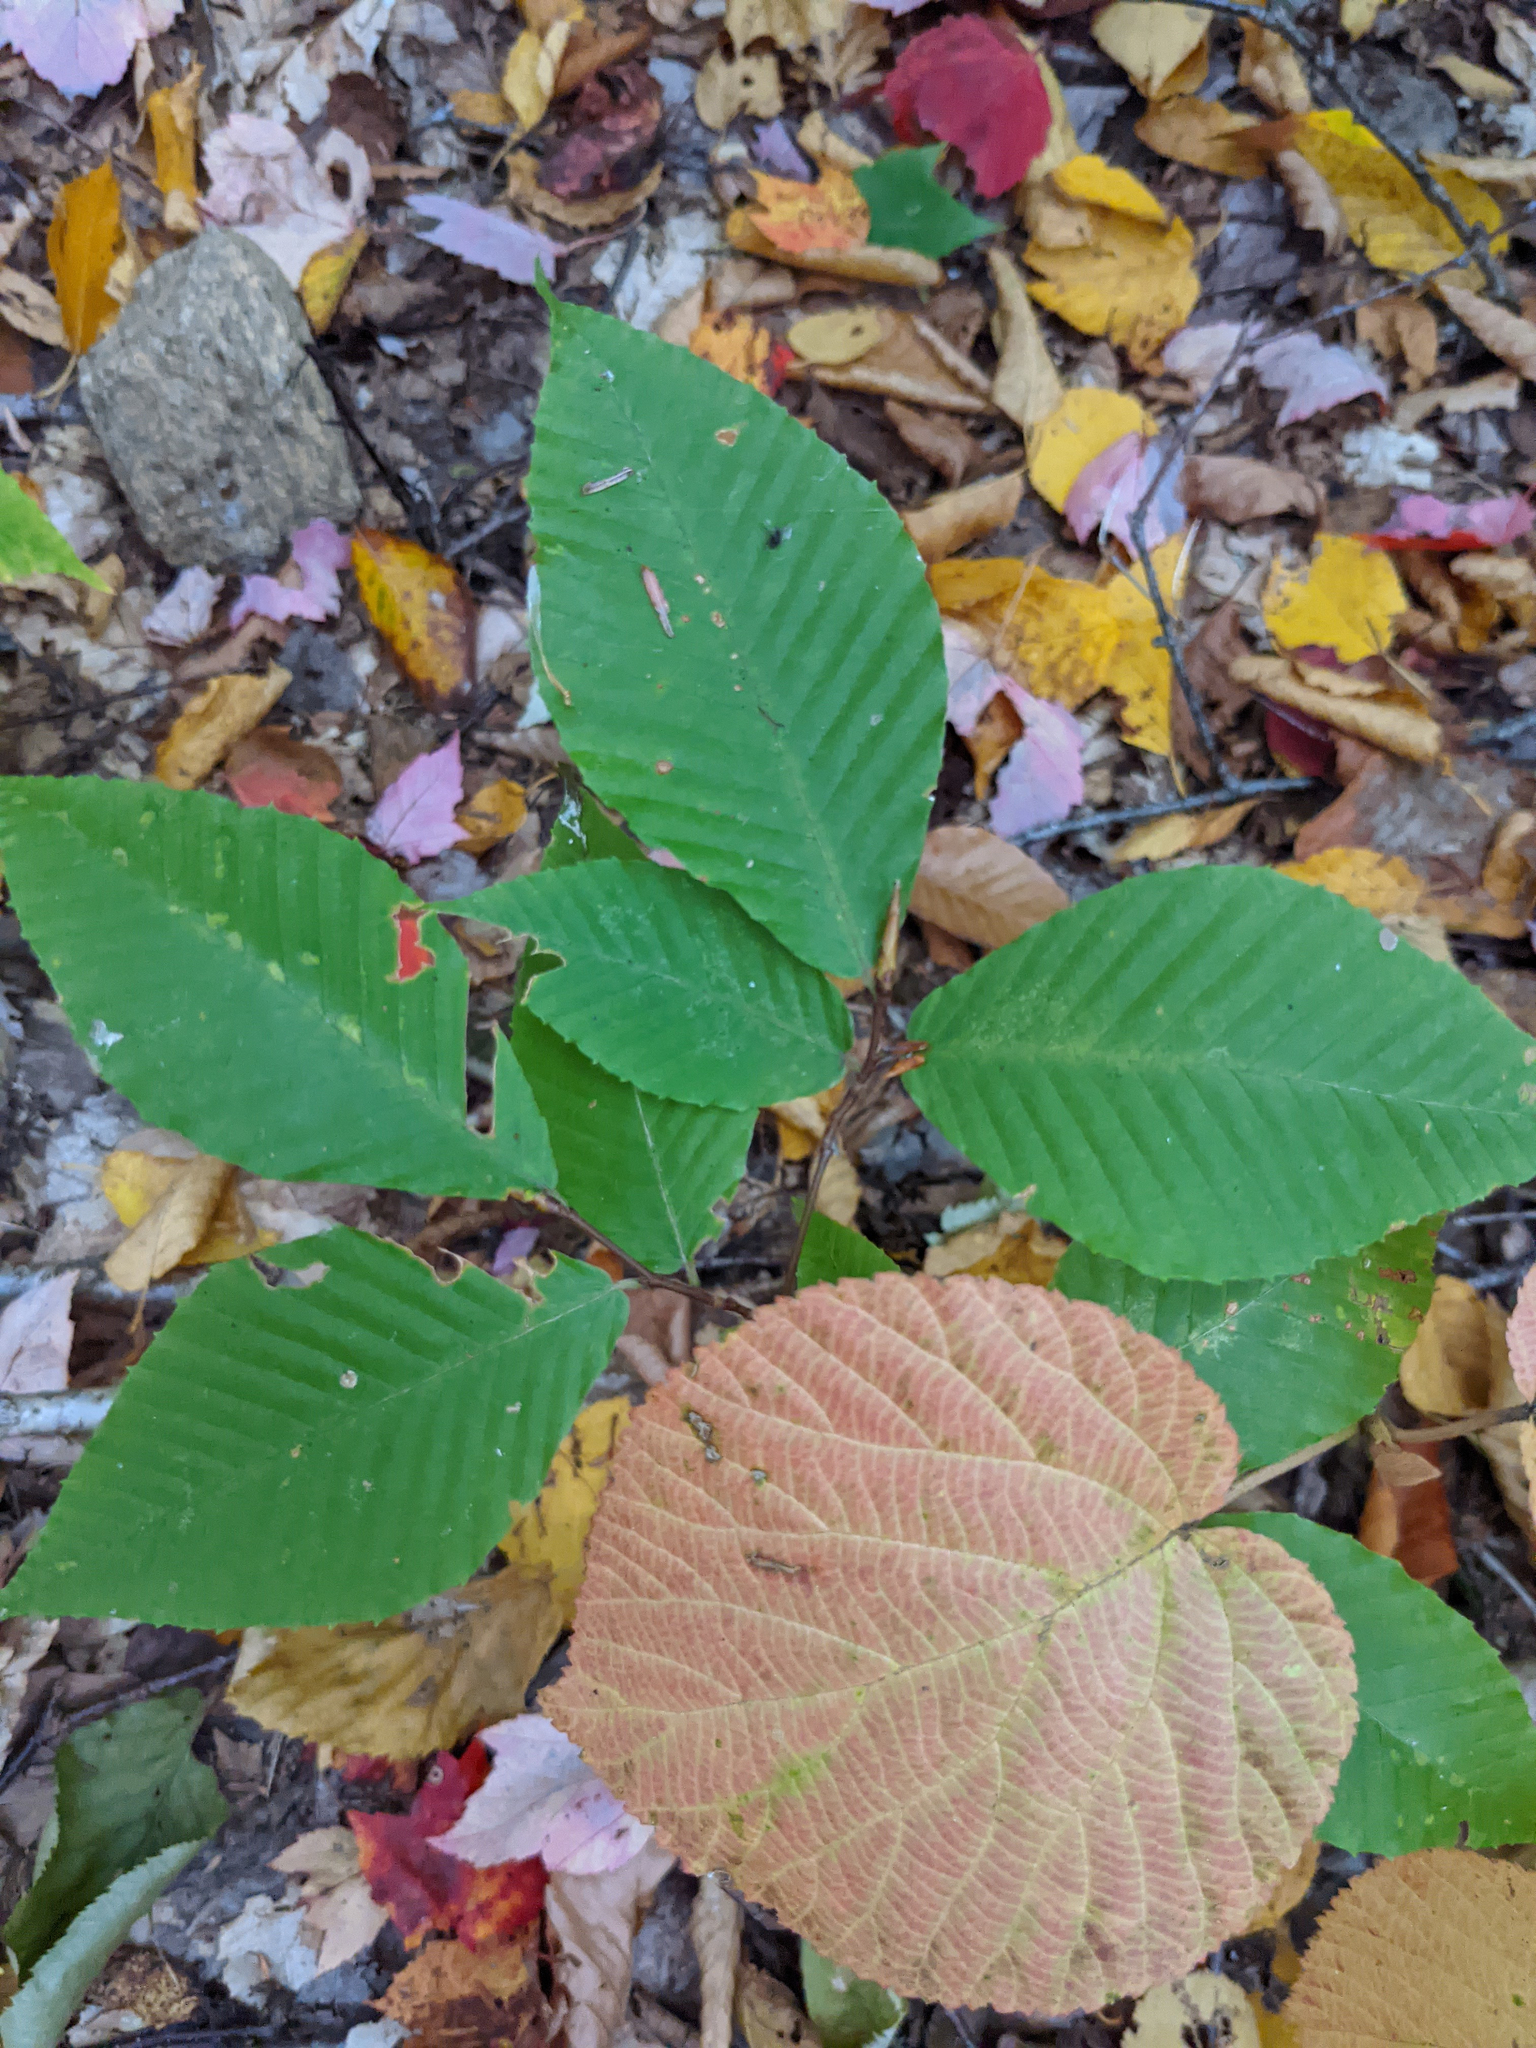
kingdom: Plantae
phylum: Tracheophyta
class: Magnoliopsida
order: Fagales
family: Fagaceae
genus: Fagus
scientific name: Fagus grandifolia
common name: American beech
